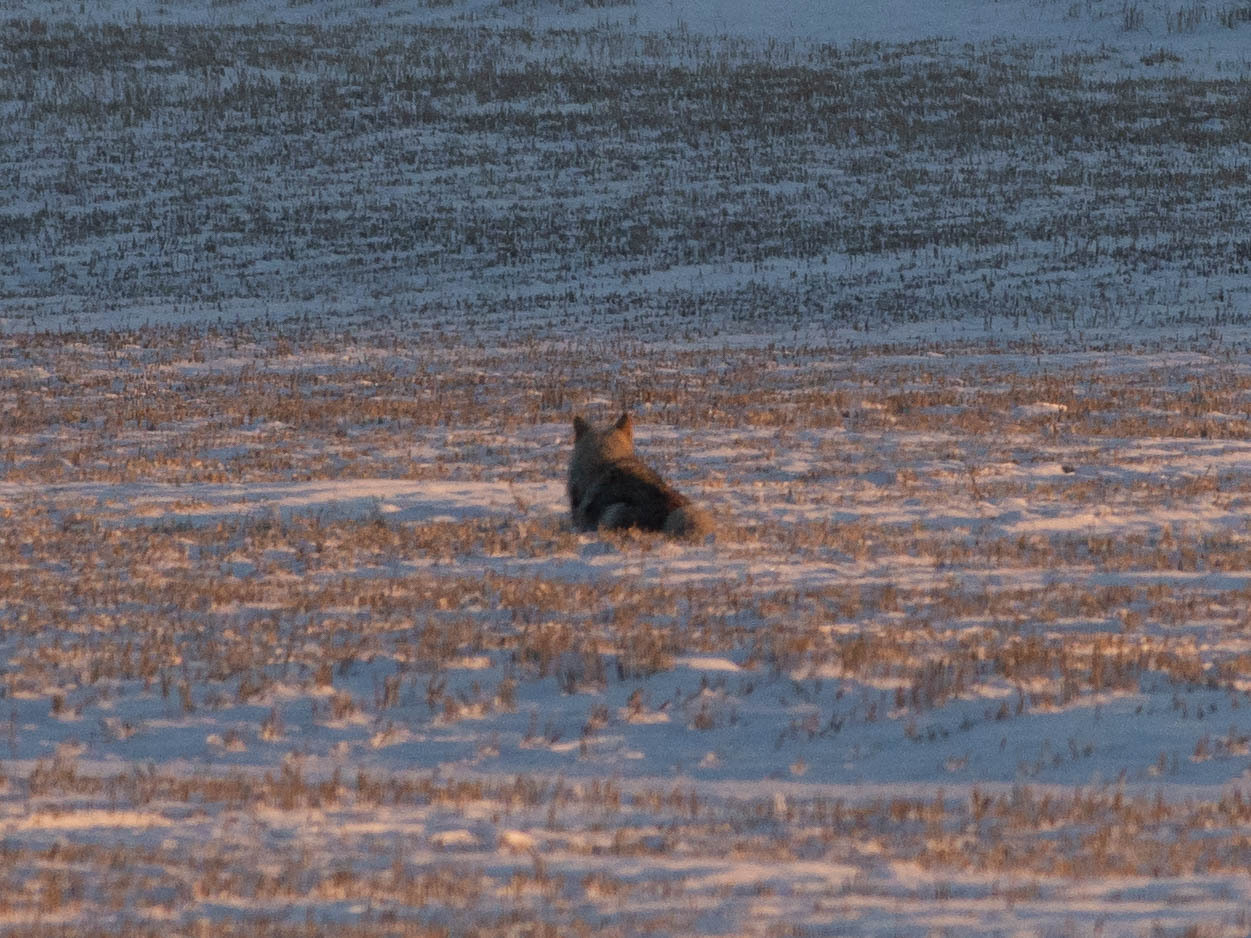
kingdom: Animalia
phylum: Chordata
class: Mammalia
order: Carnivora
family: Canidae
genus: Canis
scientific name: Canis latrans
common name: Coyote
